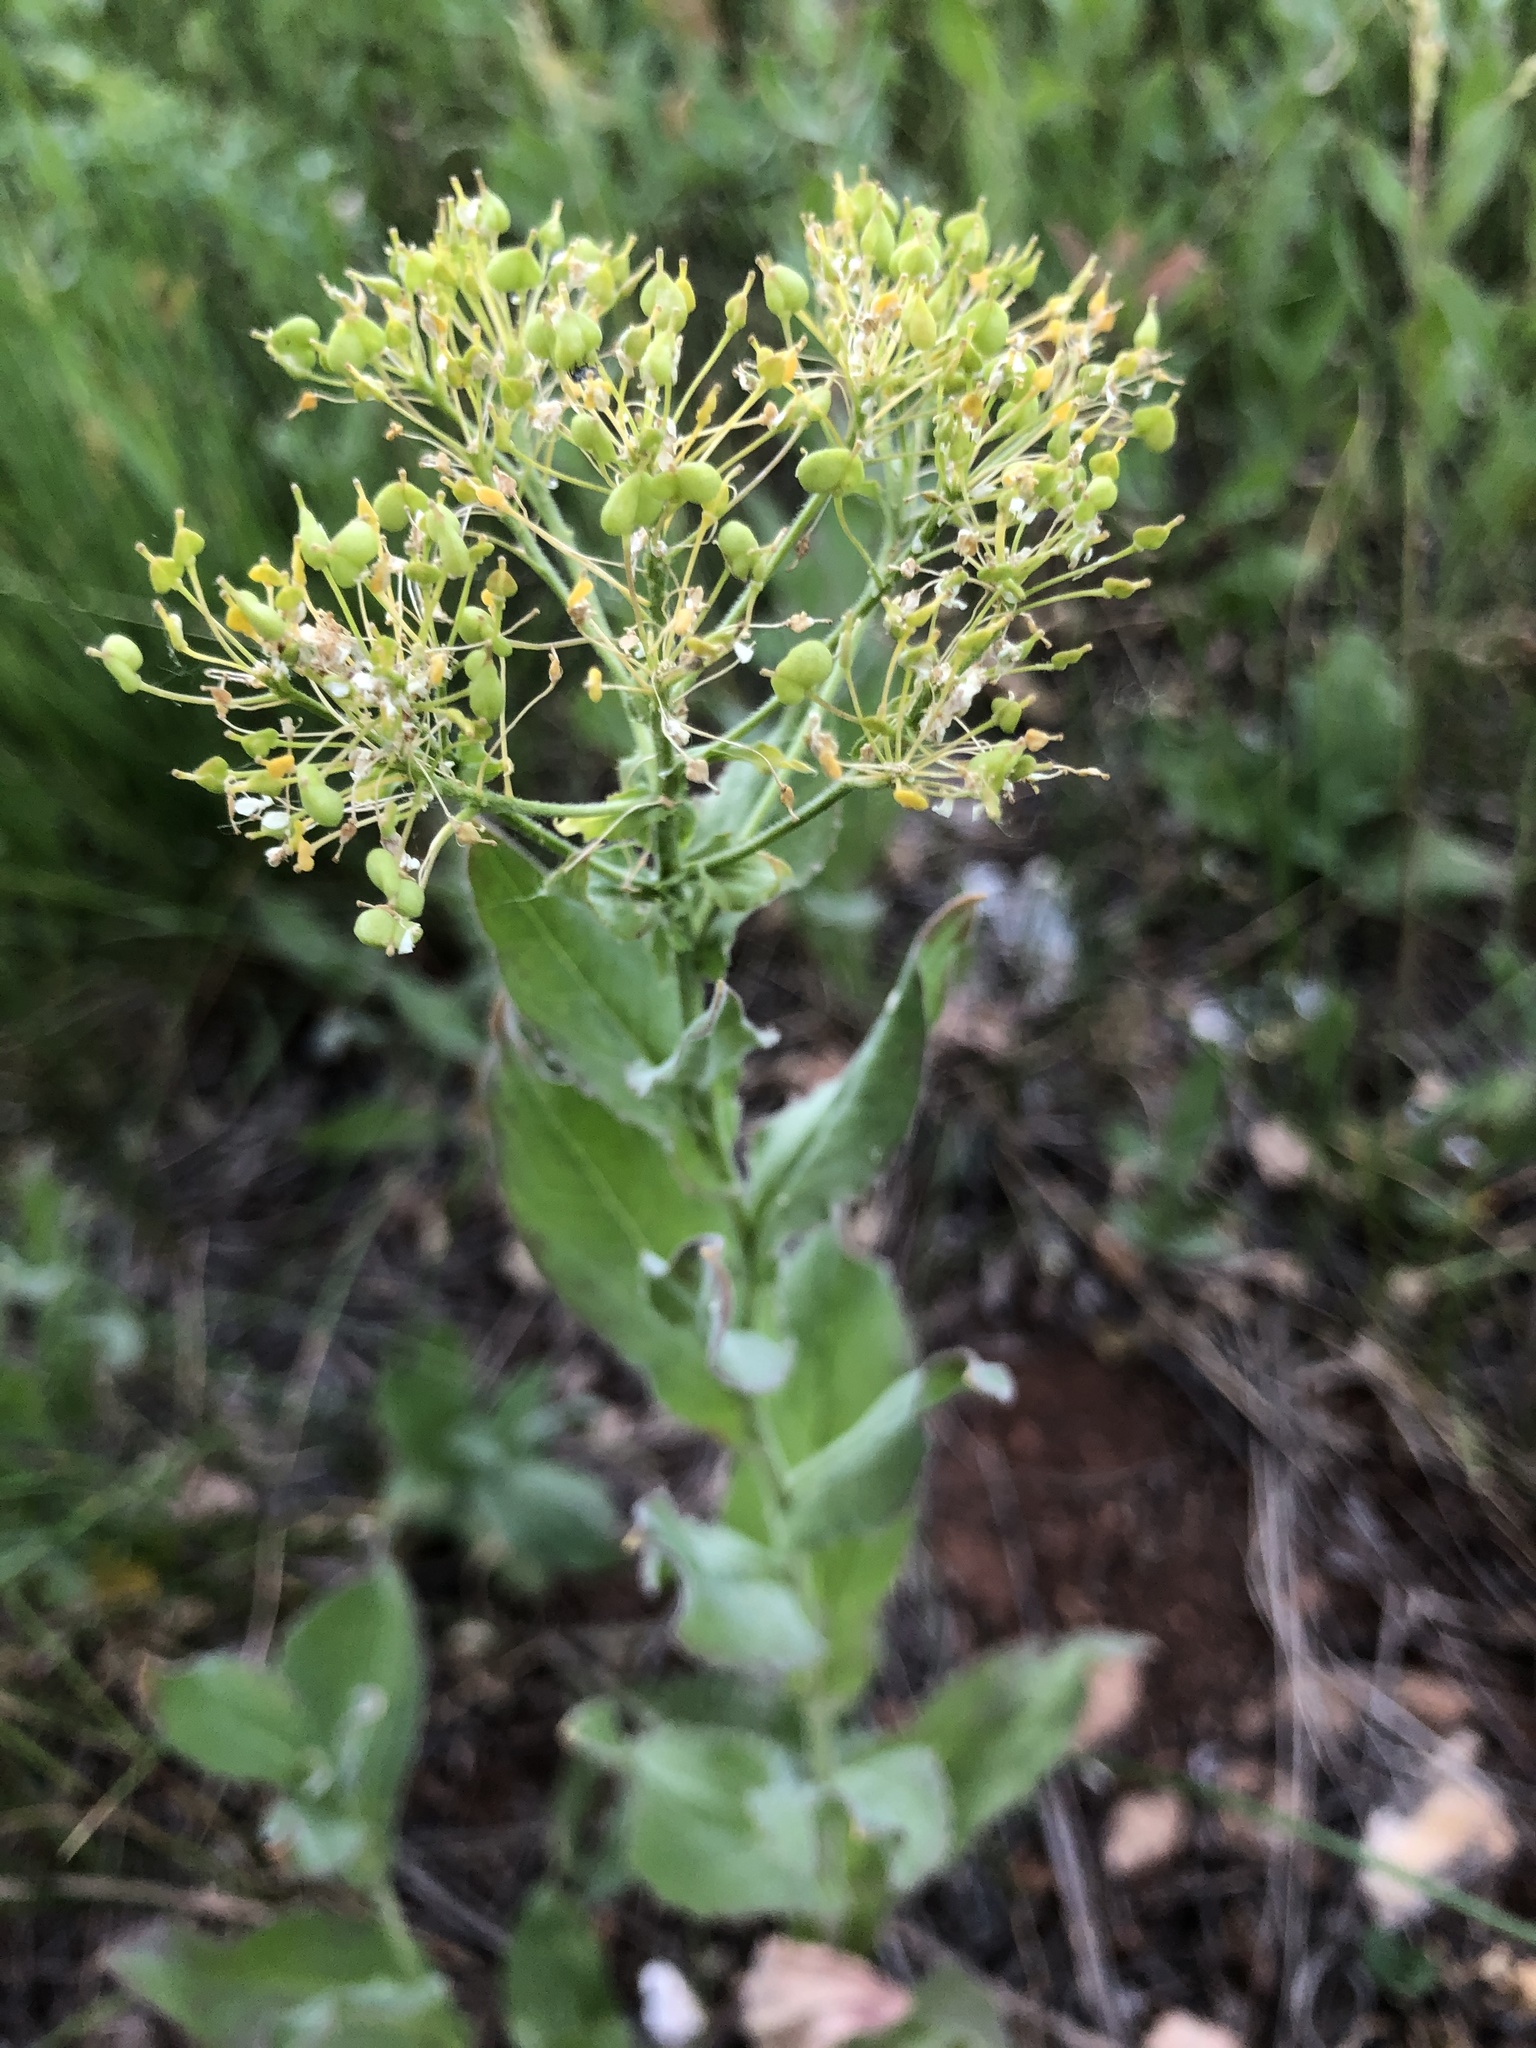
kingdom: Plantae
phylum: Tracheophyta
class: Magnoliopsida
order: Brassicales
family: Brassicaceae
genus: Lepidium
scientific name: Lepidium draba
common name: Hoary cress
